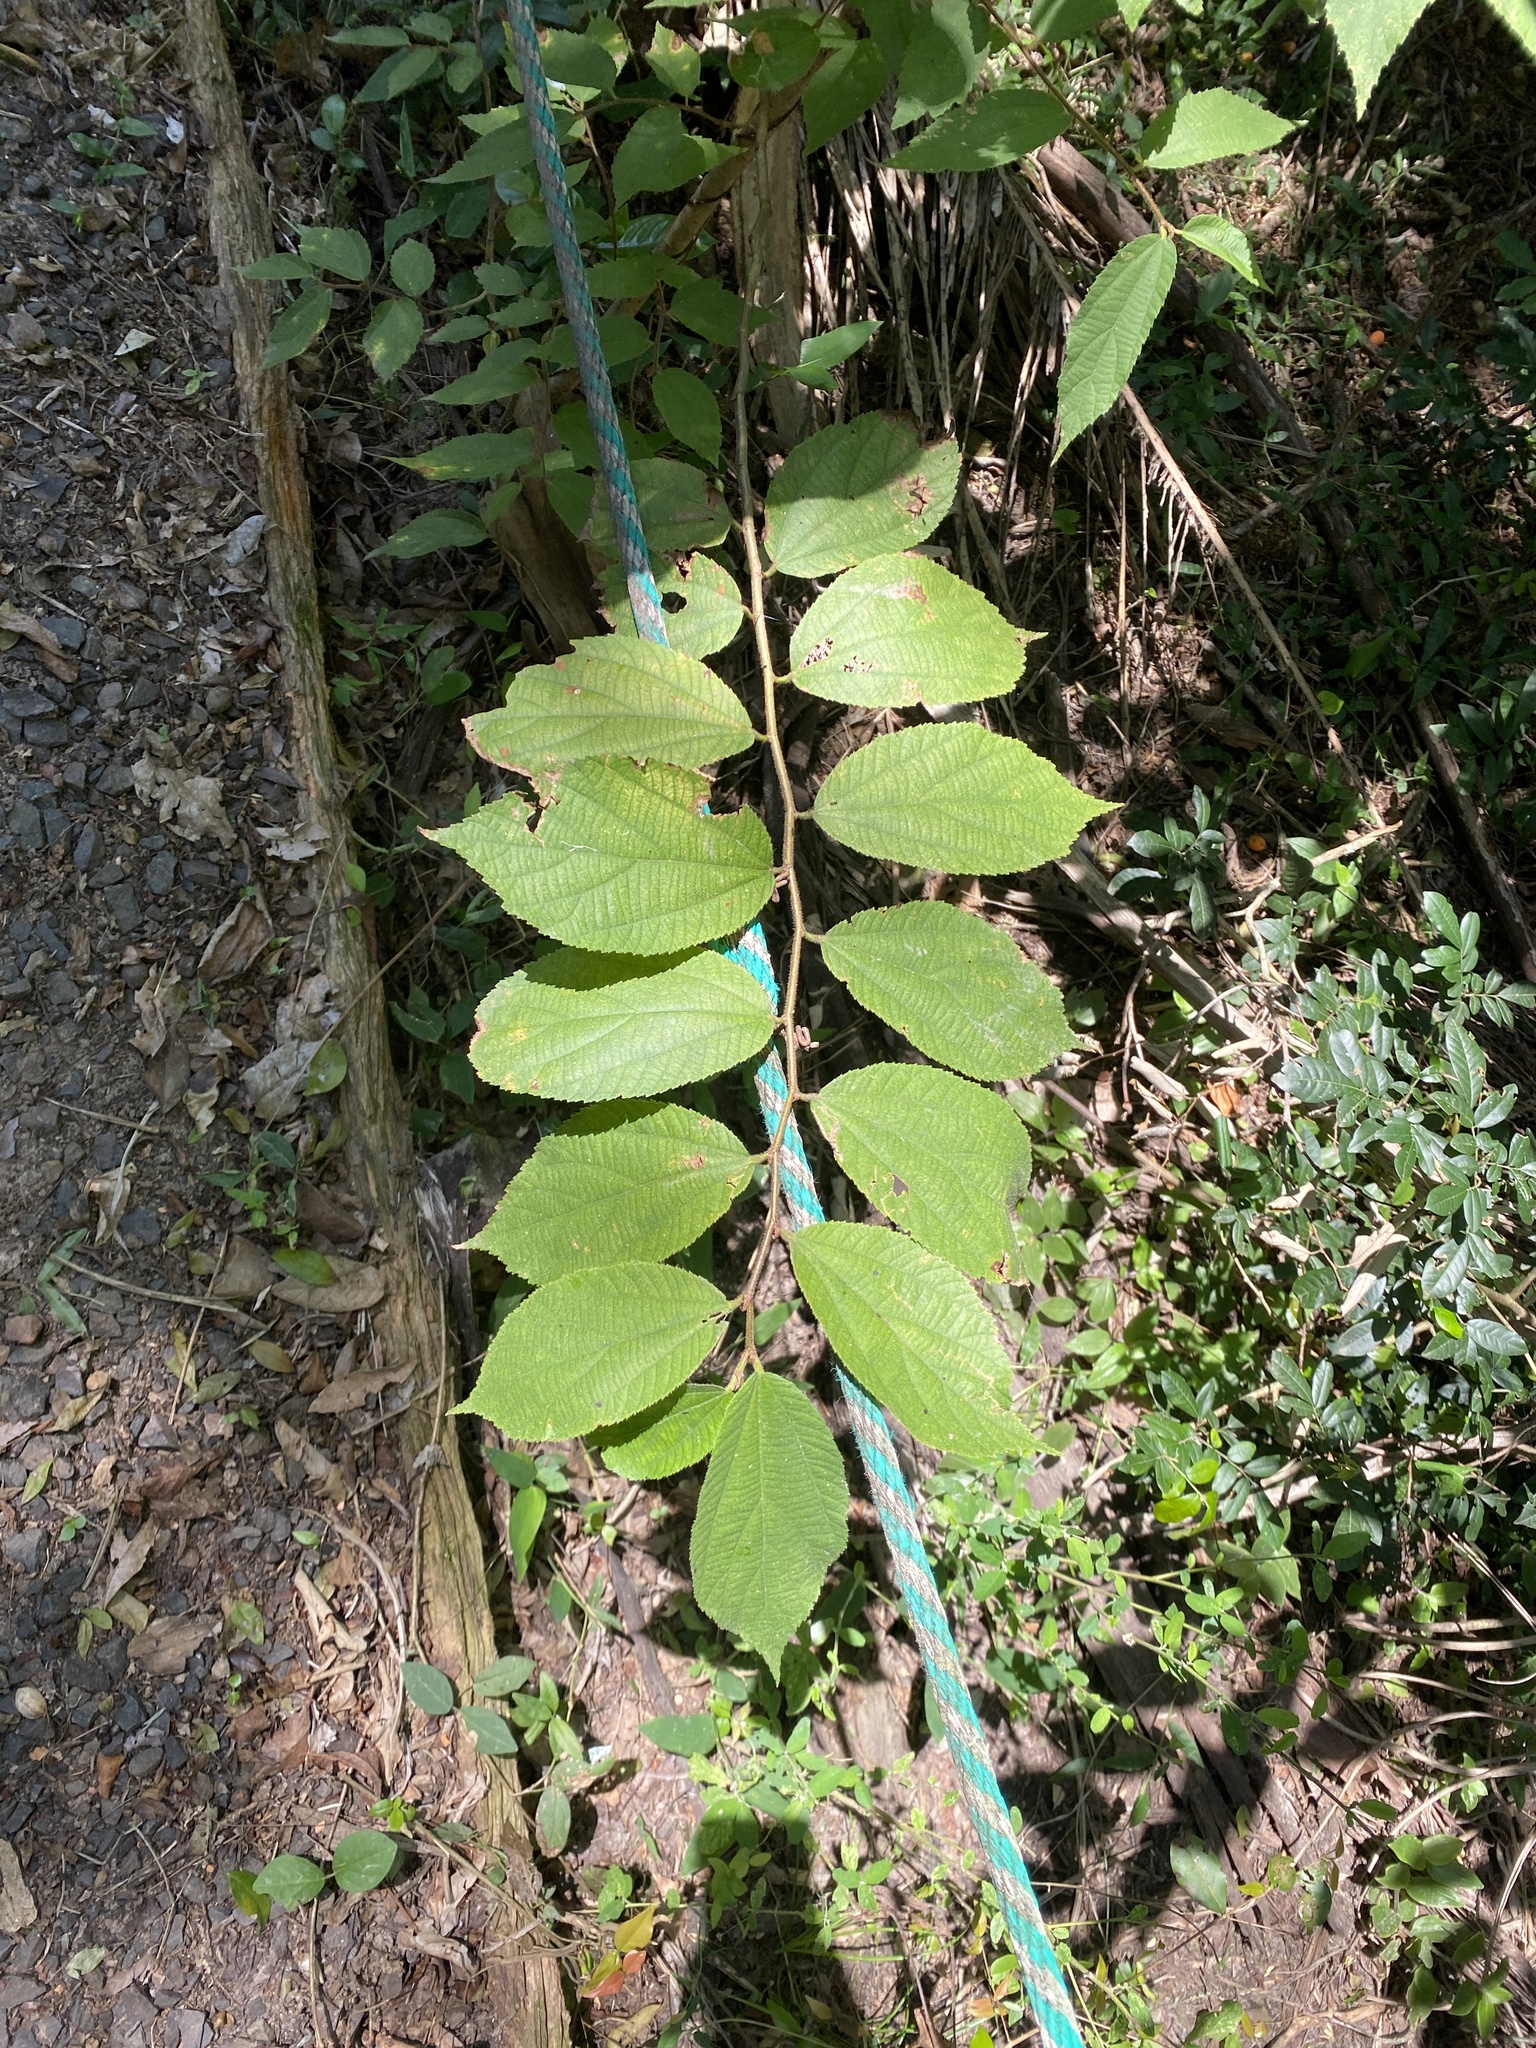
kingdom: Plantae
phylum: Tracheophyta
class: Magnoliopsida
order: Malvales
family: Malvaceae
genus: Luehea
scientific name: Luehea divaricata
